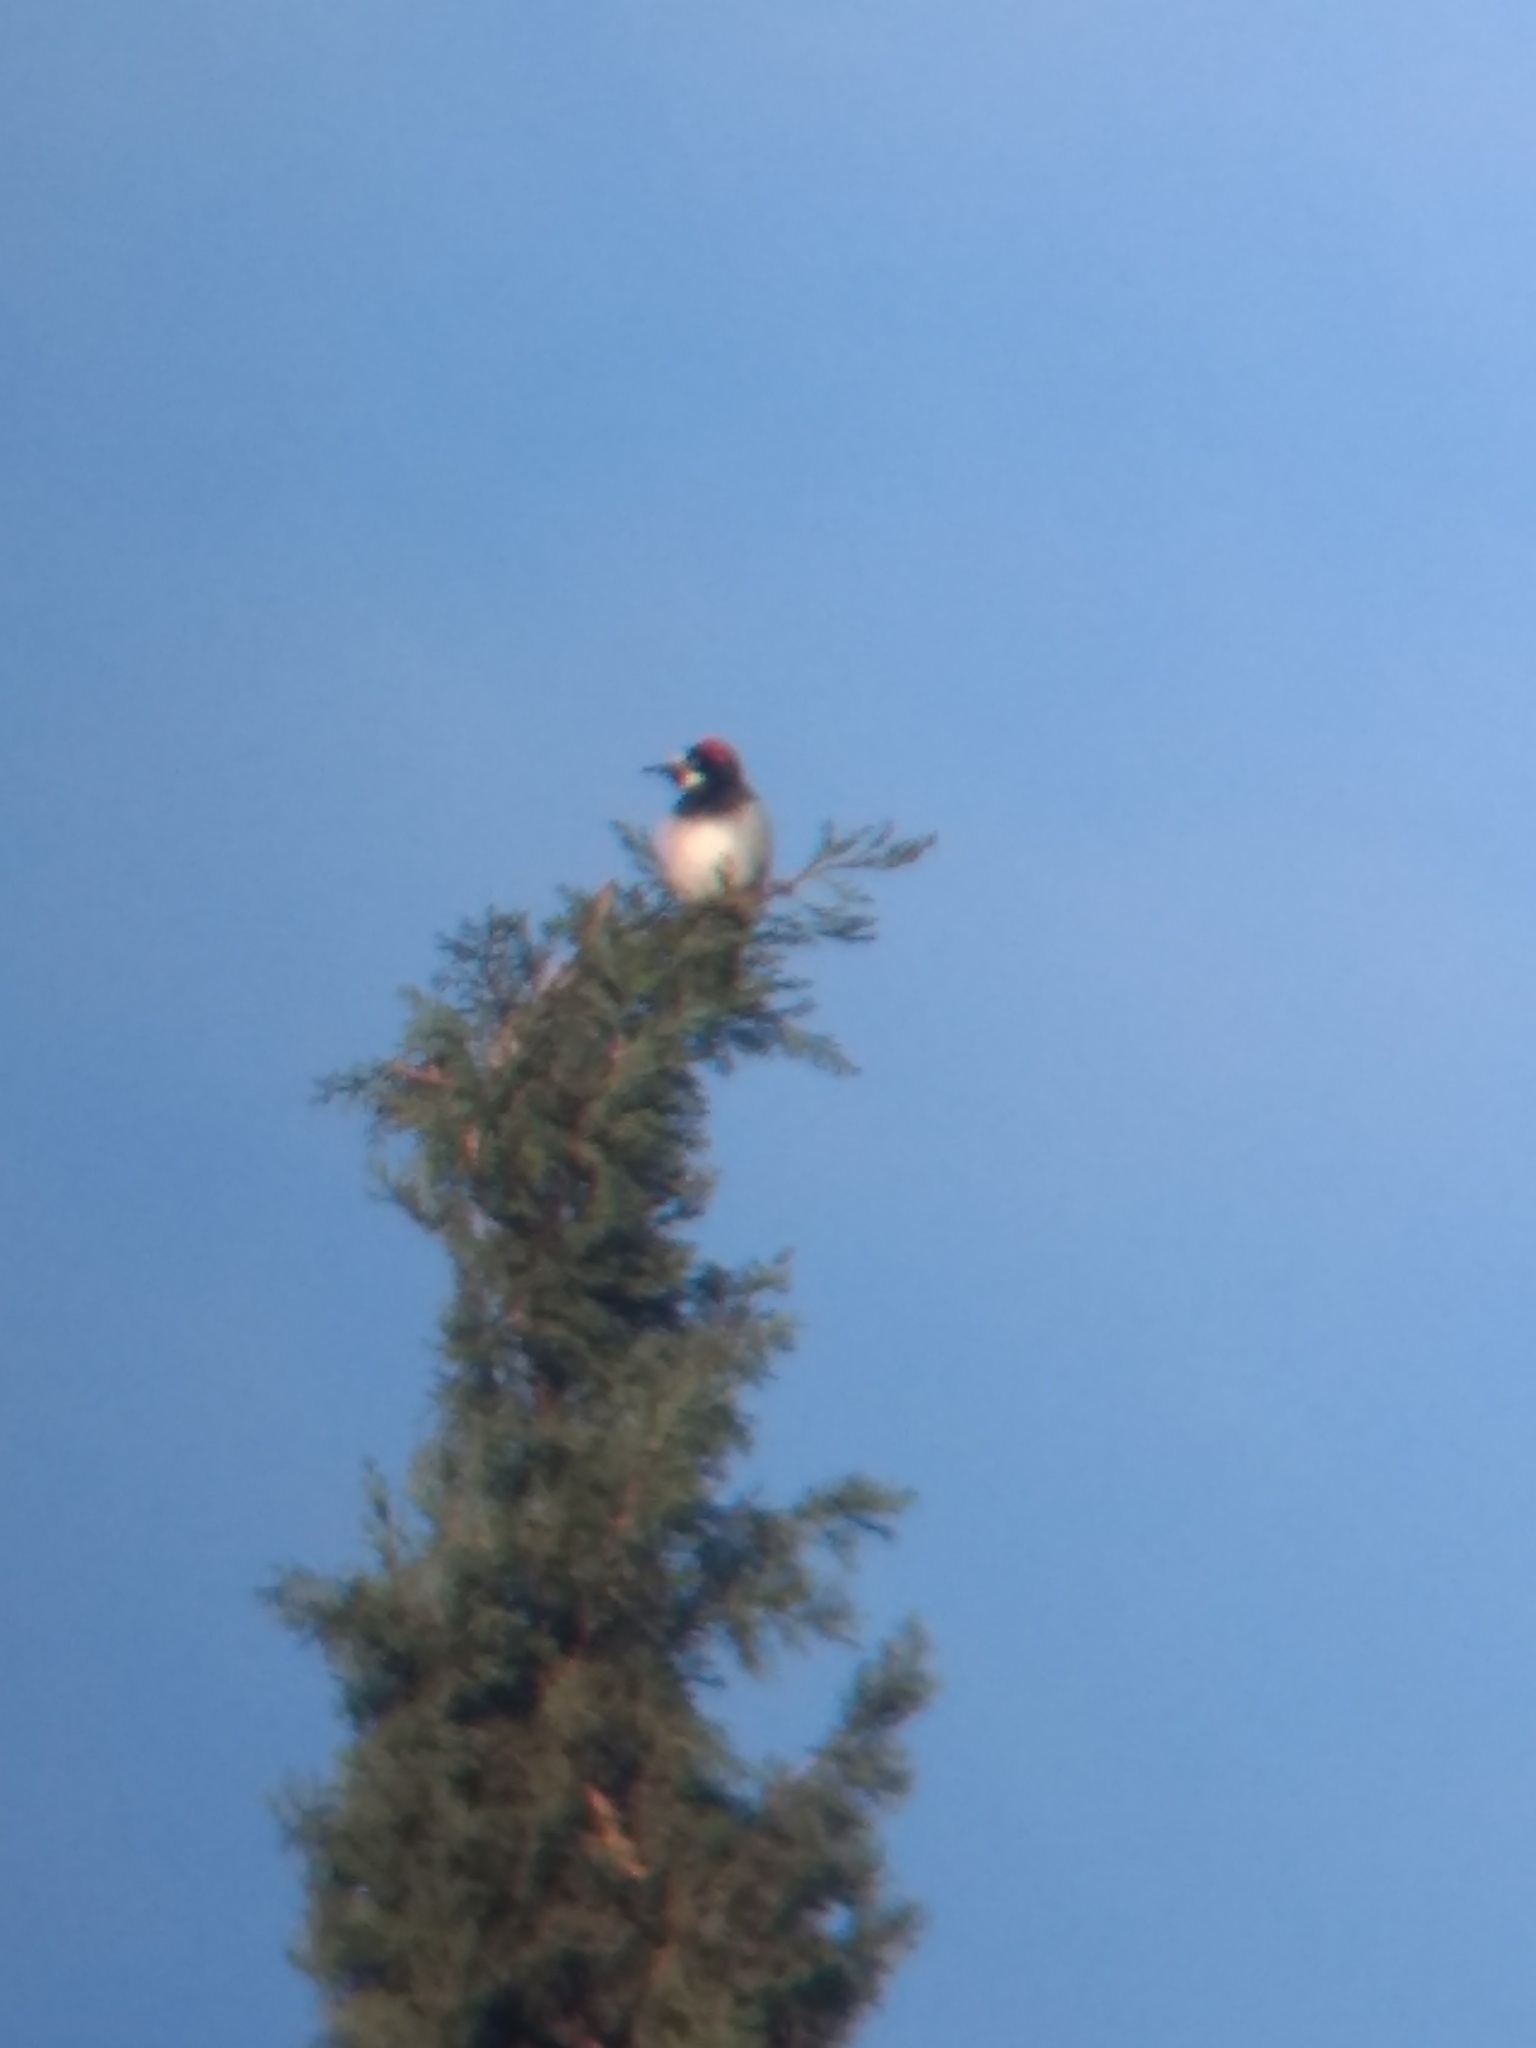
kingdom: Animalia
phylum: Chordata
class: Aves
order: Piciformes
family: Picidae
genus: Melanerpes
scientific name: Melanerpes formicivorus
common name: Acorn woodpecker
